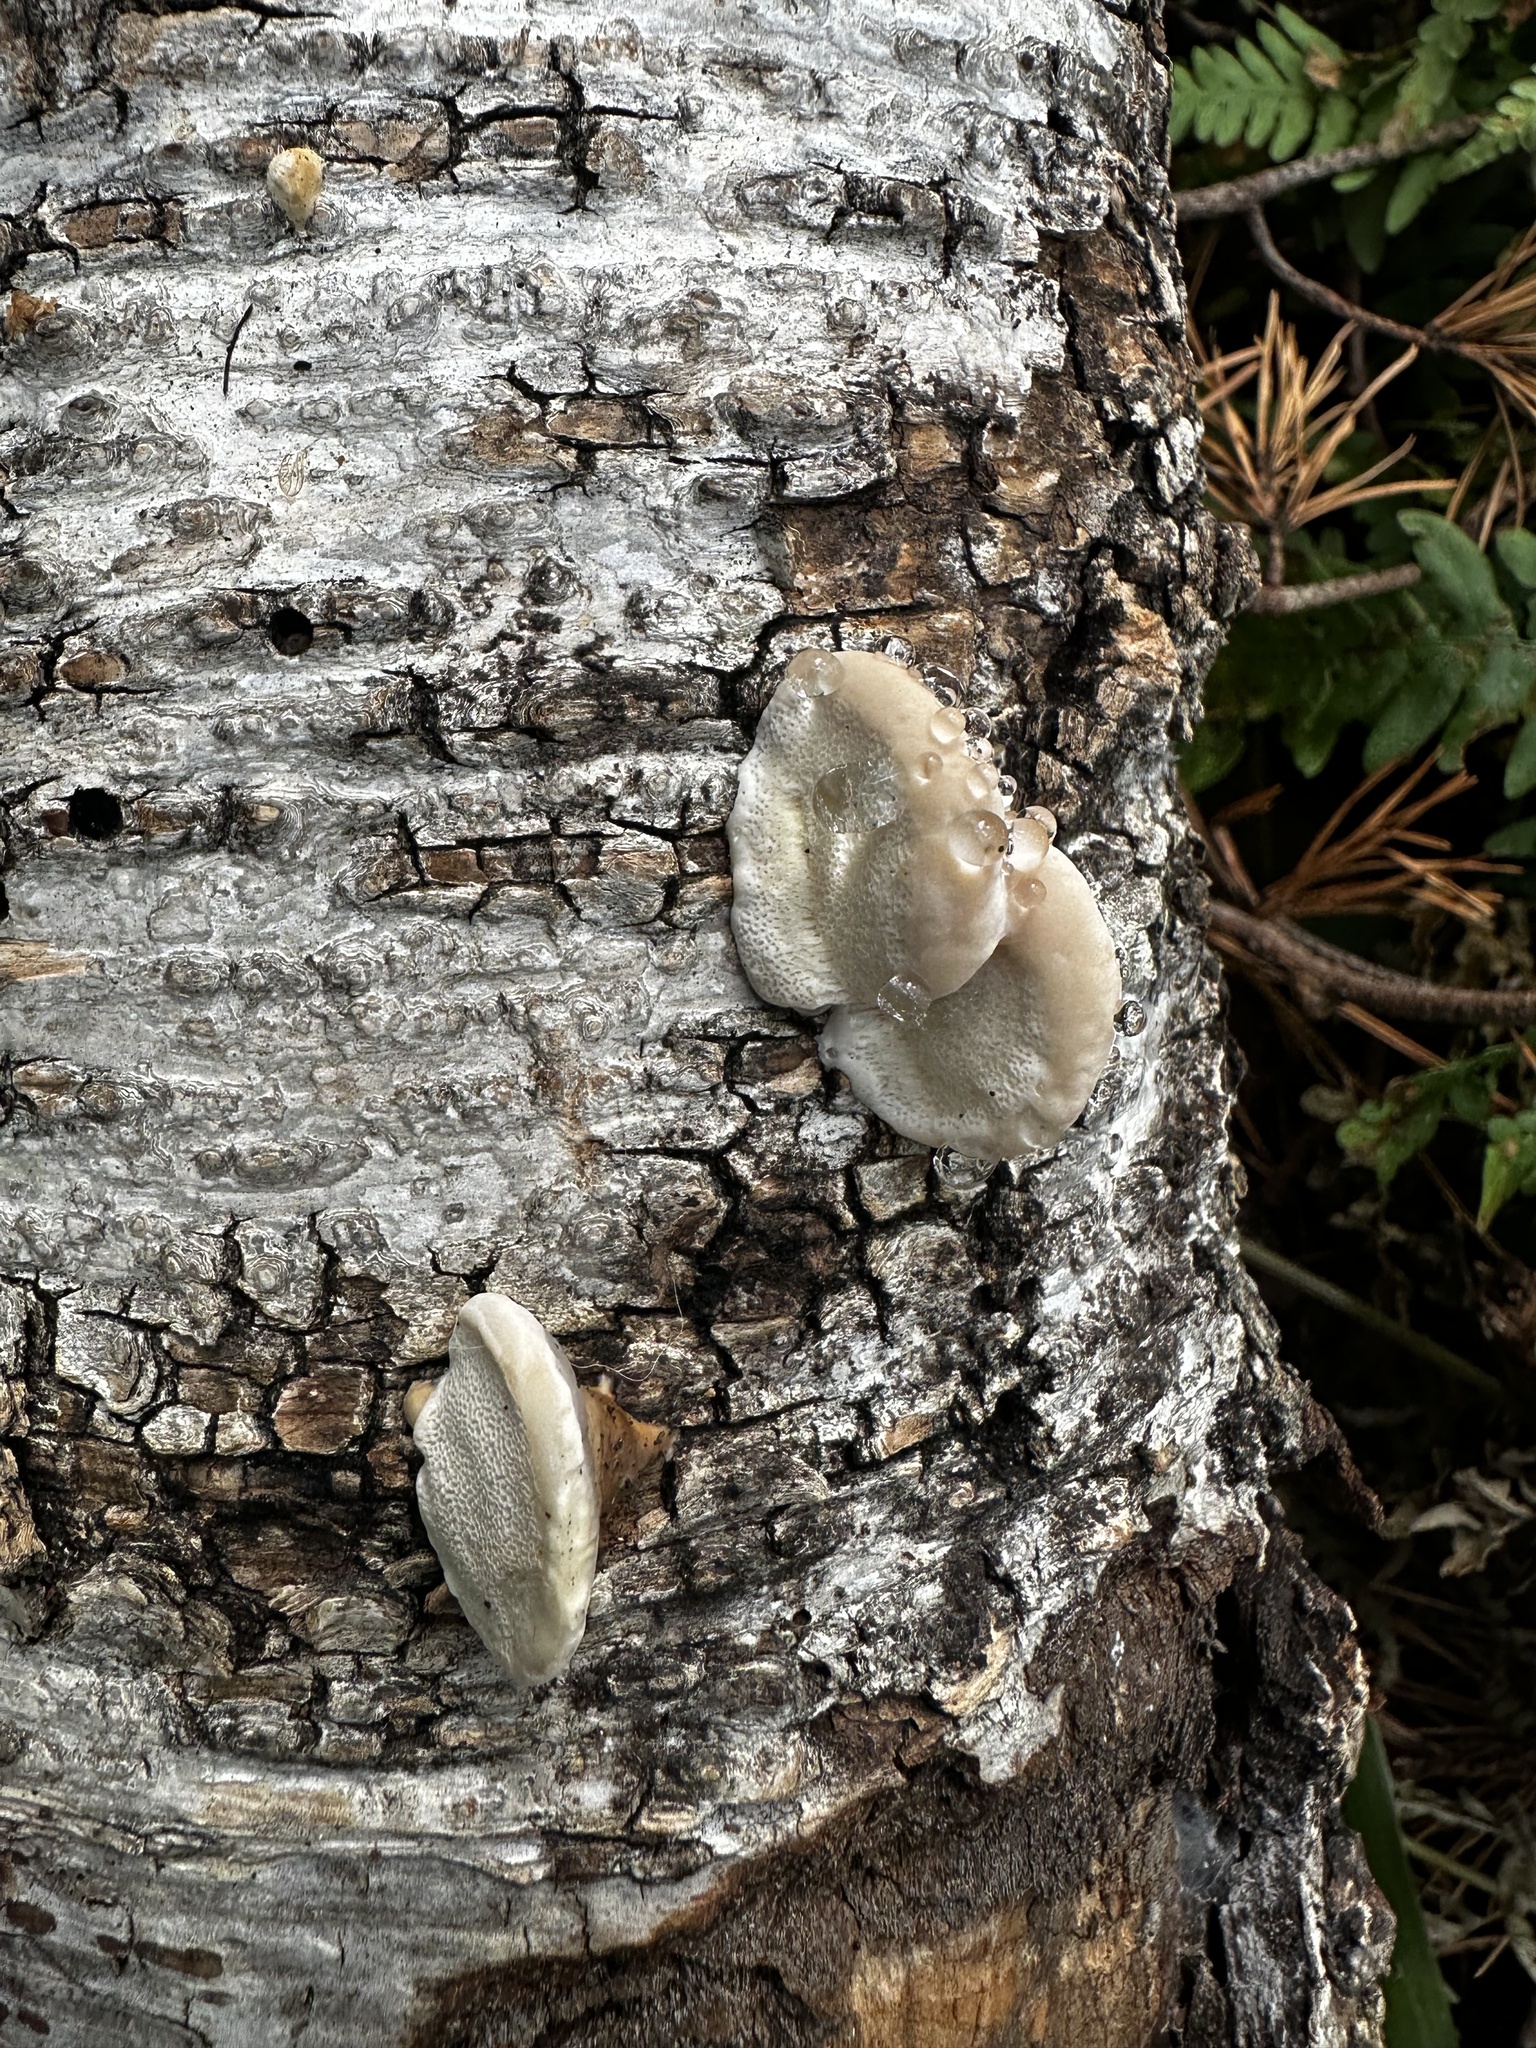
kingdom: Fungi
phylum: Basidiomycota
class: Agaricomycetes
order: Polyporales
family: Fomitopsidaceae
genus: Fomitopsis
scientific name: Fomitopsis pinicola
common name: Red-belted bracket
